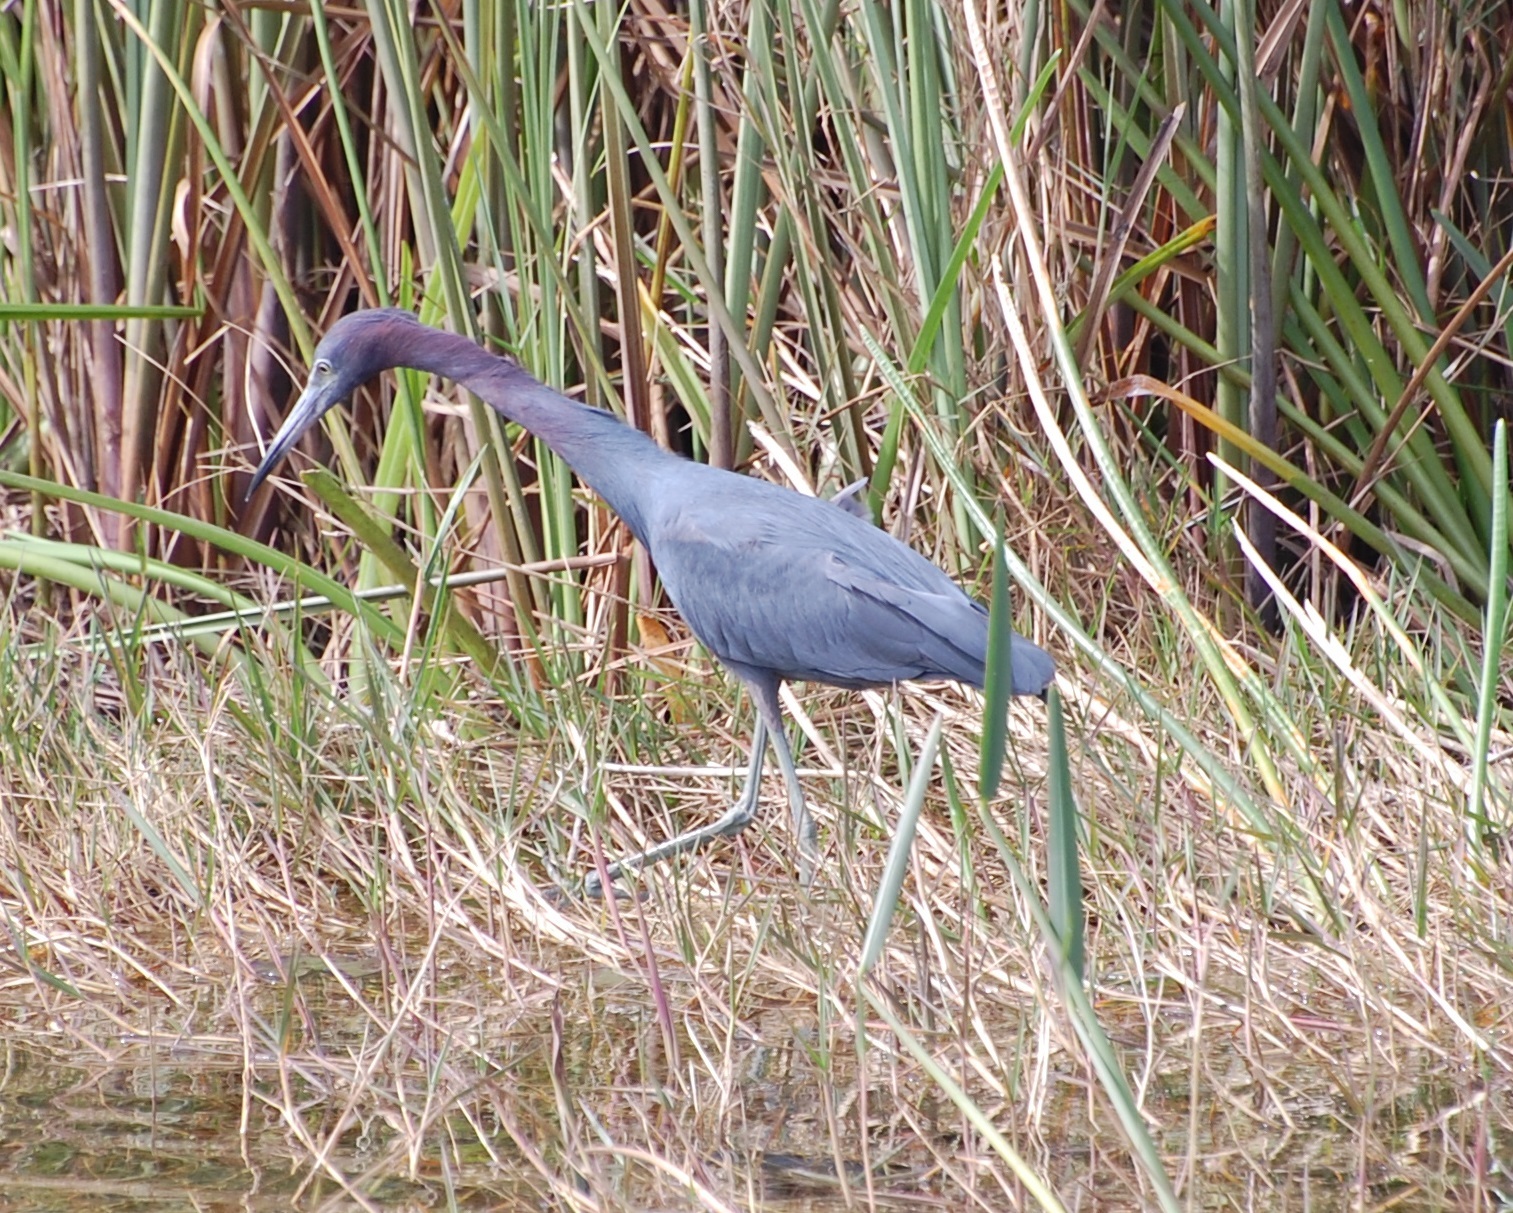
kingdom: Animalia
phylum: Chordata
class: Aves
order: Pelecaniformes
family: Ardeidae
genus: Egretta
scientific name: Egretta caerulea
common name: Little blue heron
